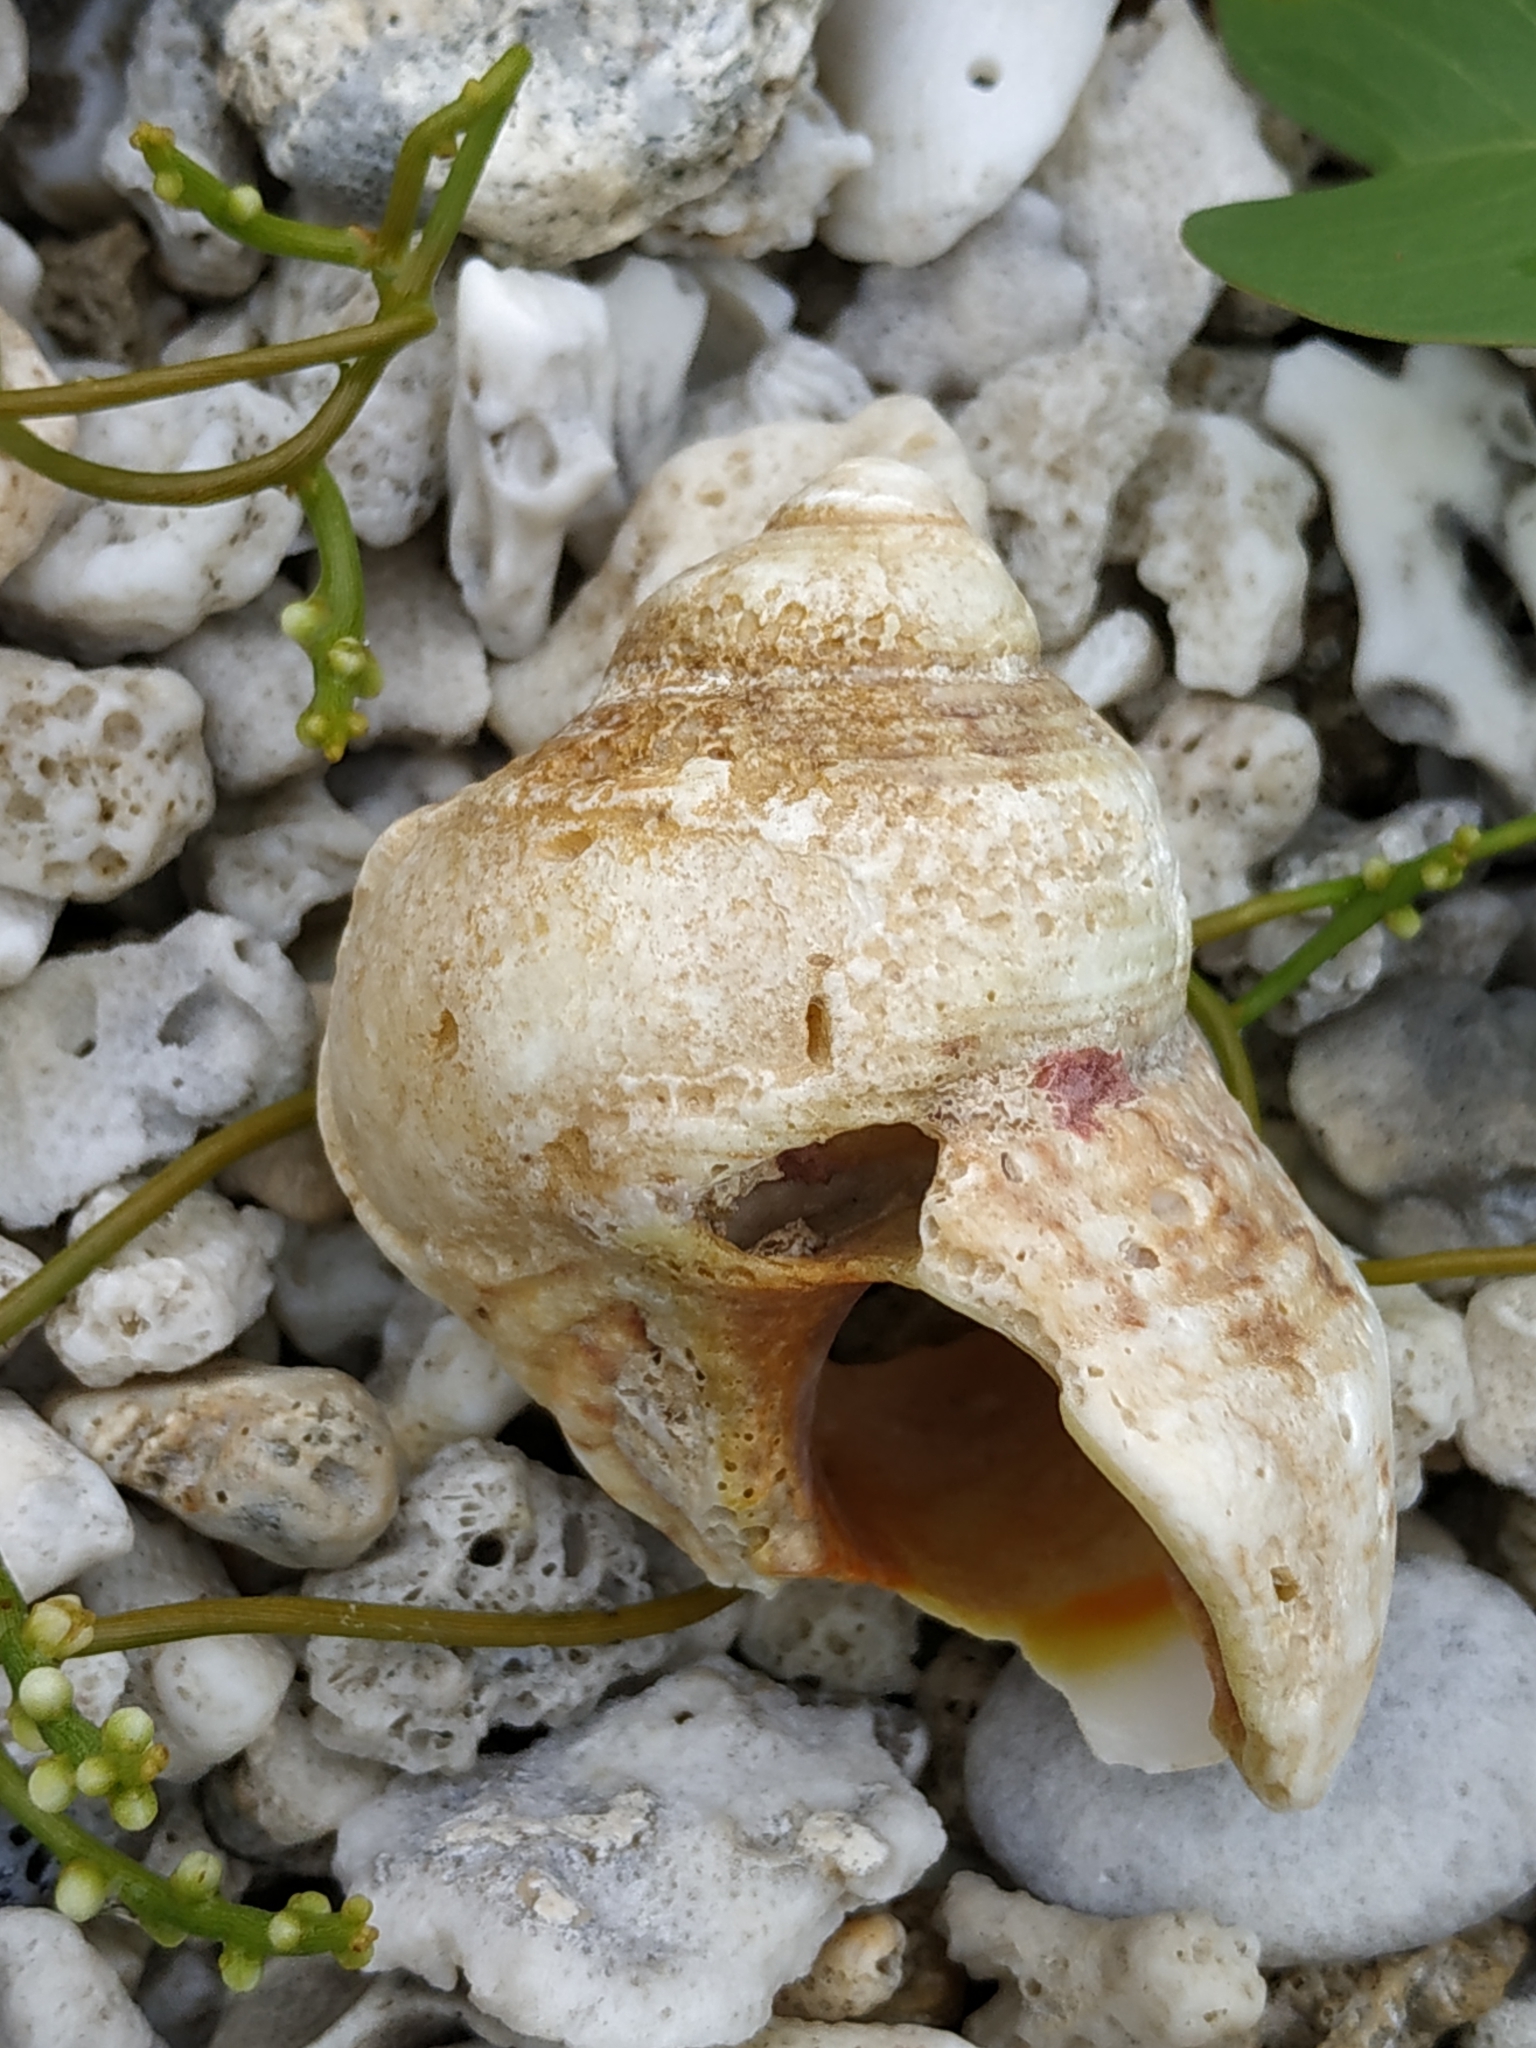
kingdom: Animalia
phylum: Mollusca
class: Gastropoda
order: Trochida
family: Turbinidae
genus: Turbo
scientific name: Turbo chrysostomus
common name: Gold-mouthed turban
